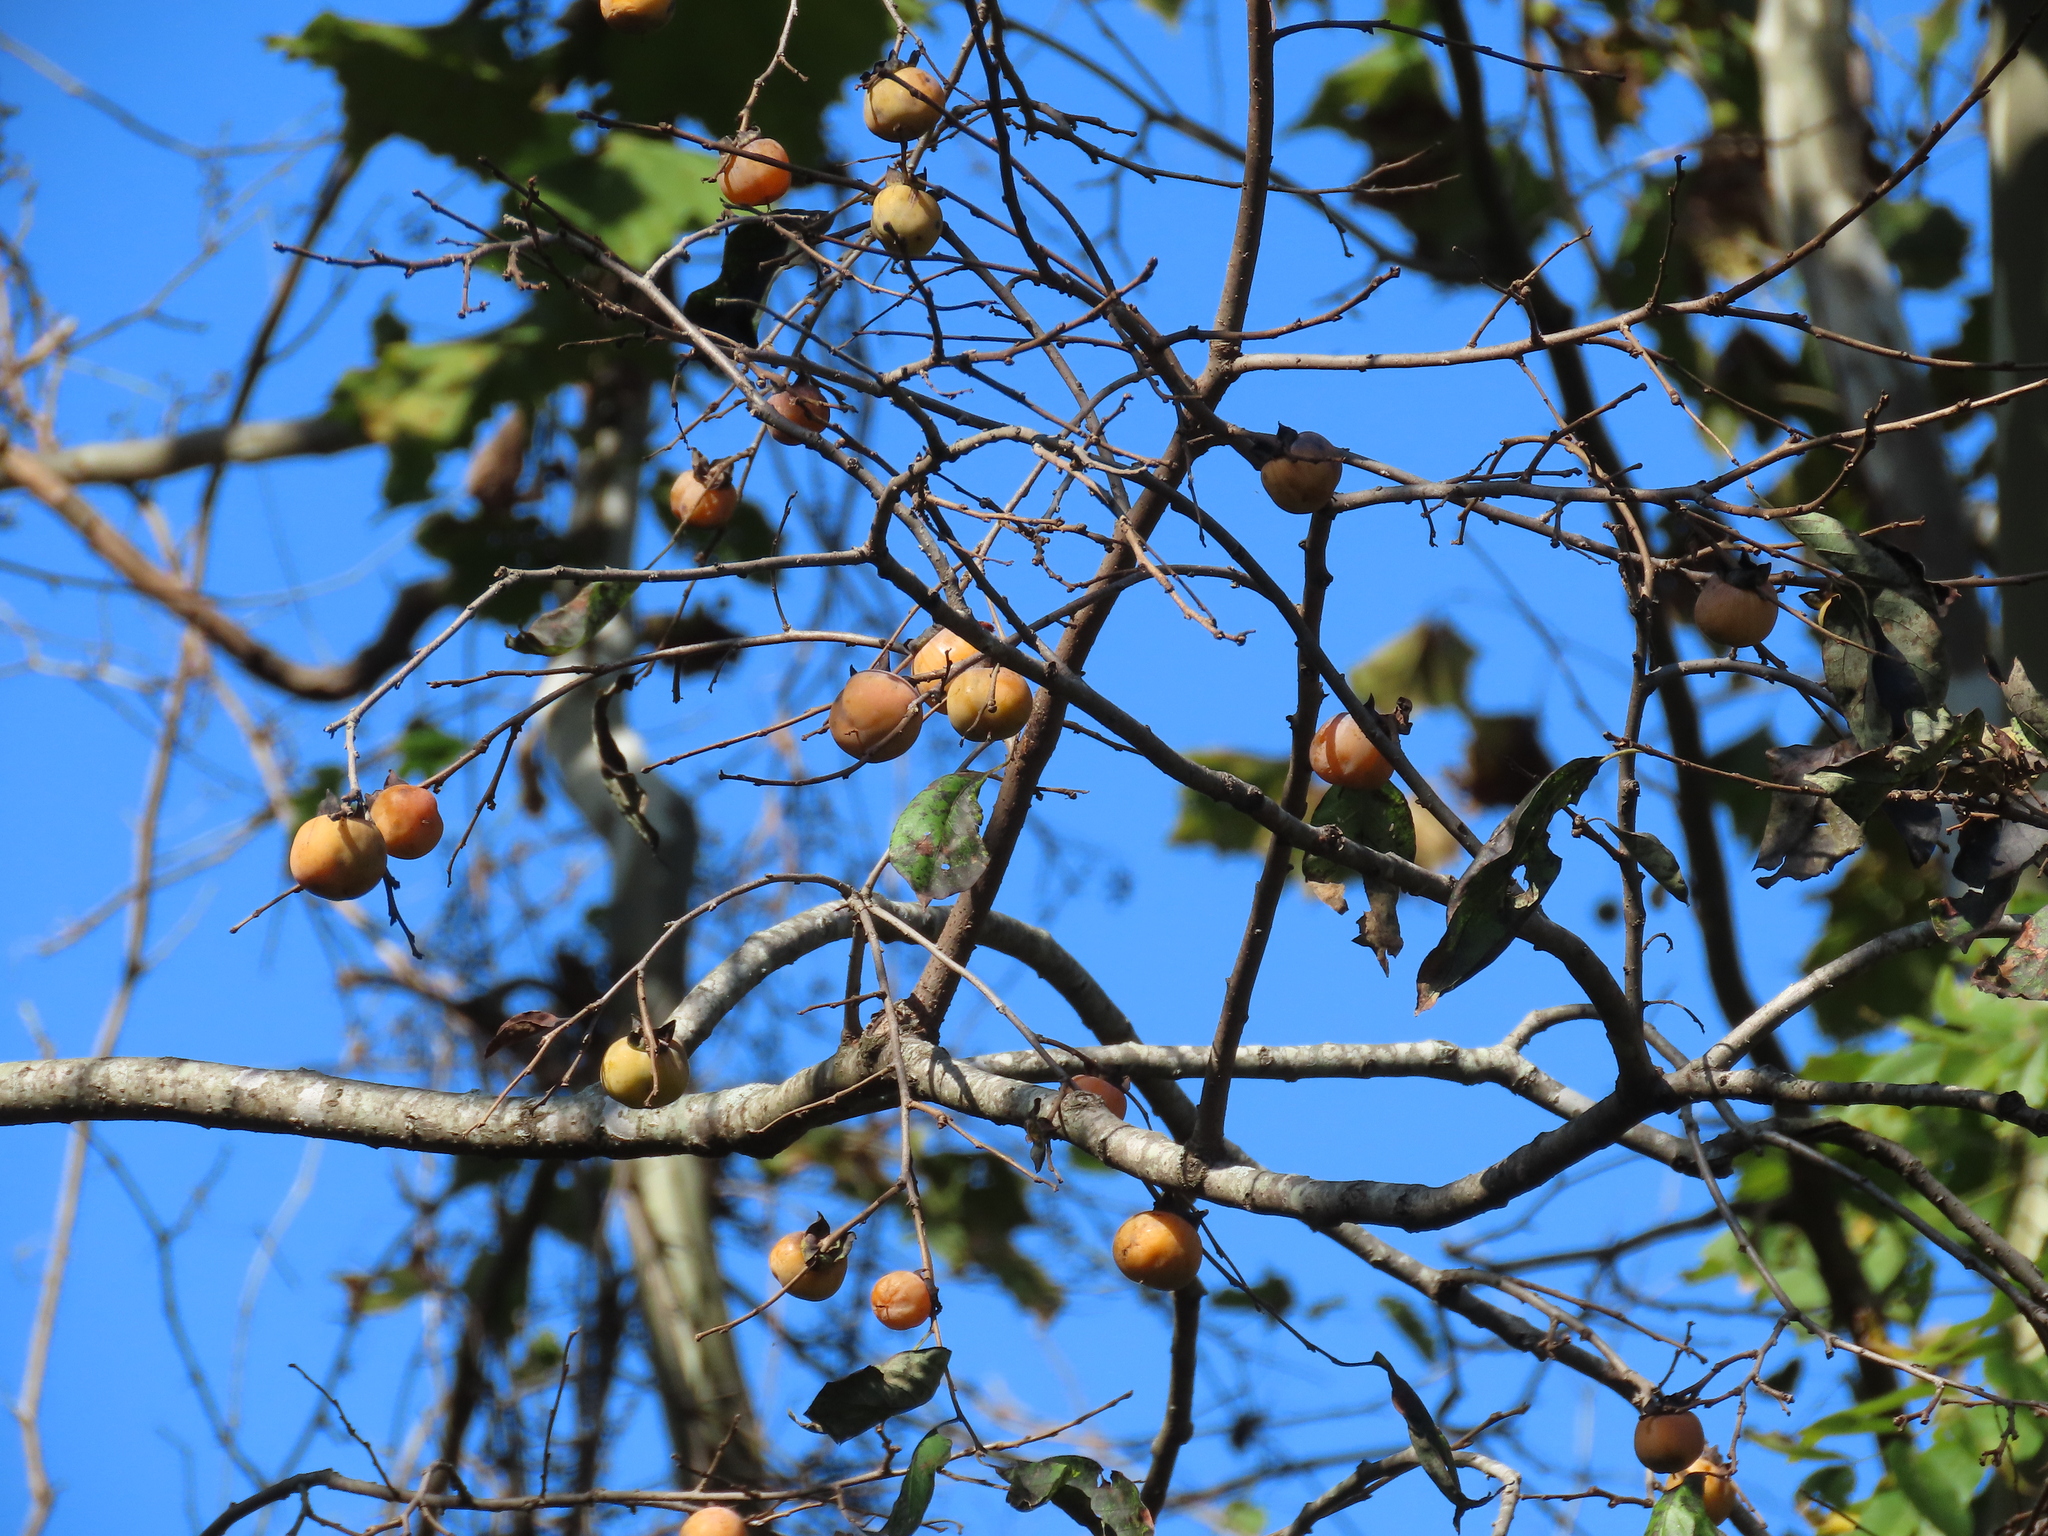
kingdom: Plantae
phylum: Tracheophyta
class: Magnoliopsida
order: Ericales
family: Ebenaceae
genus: Diospyros
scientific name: Diospyros virginiana
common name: Persimmon
